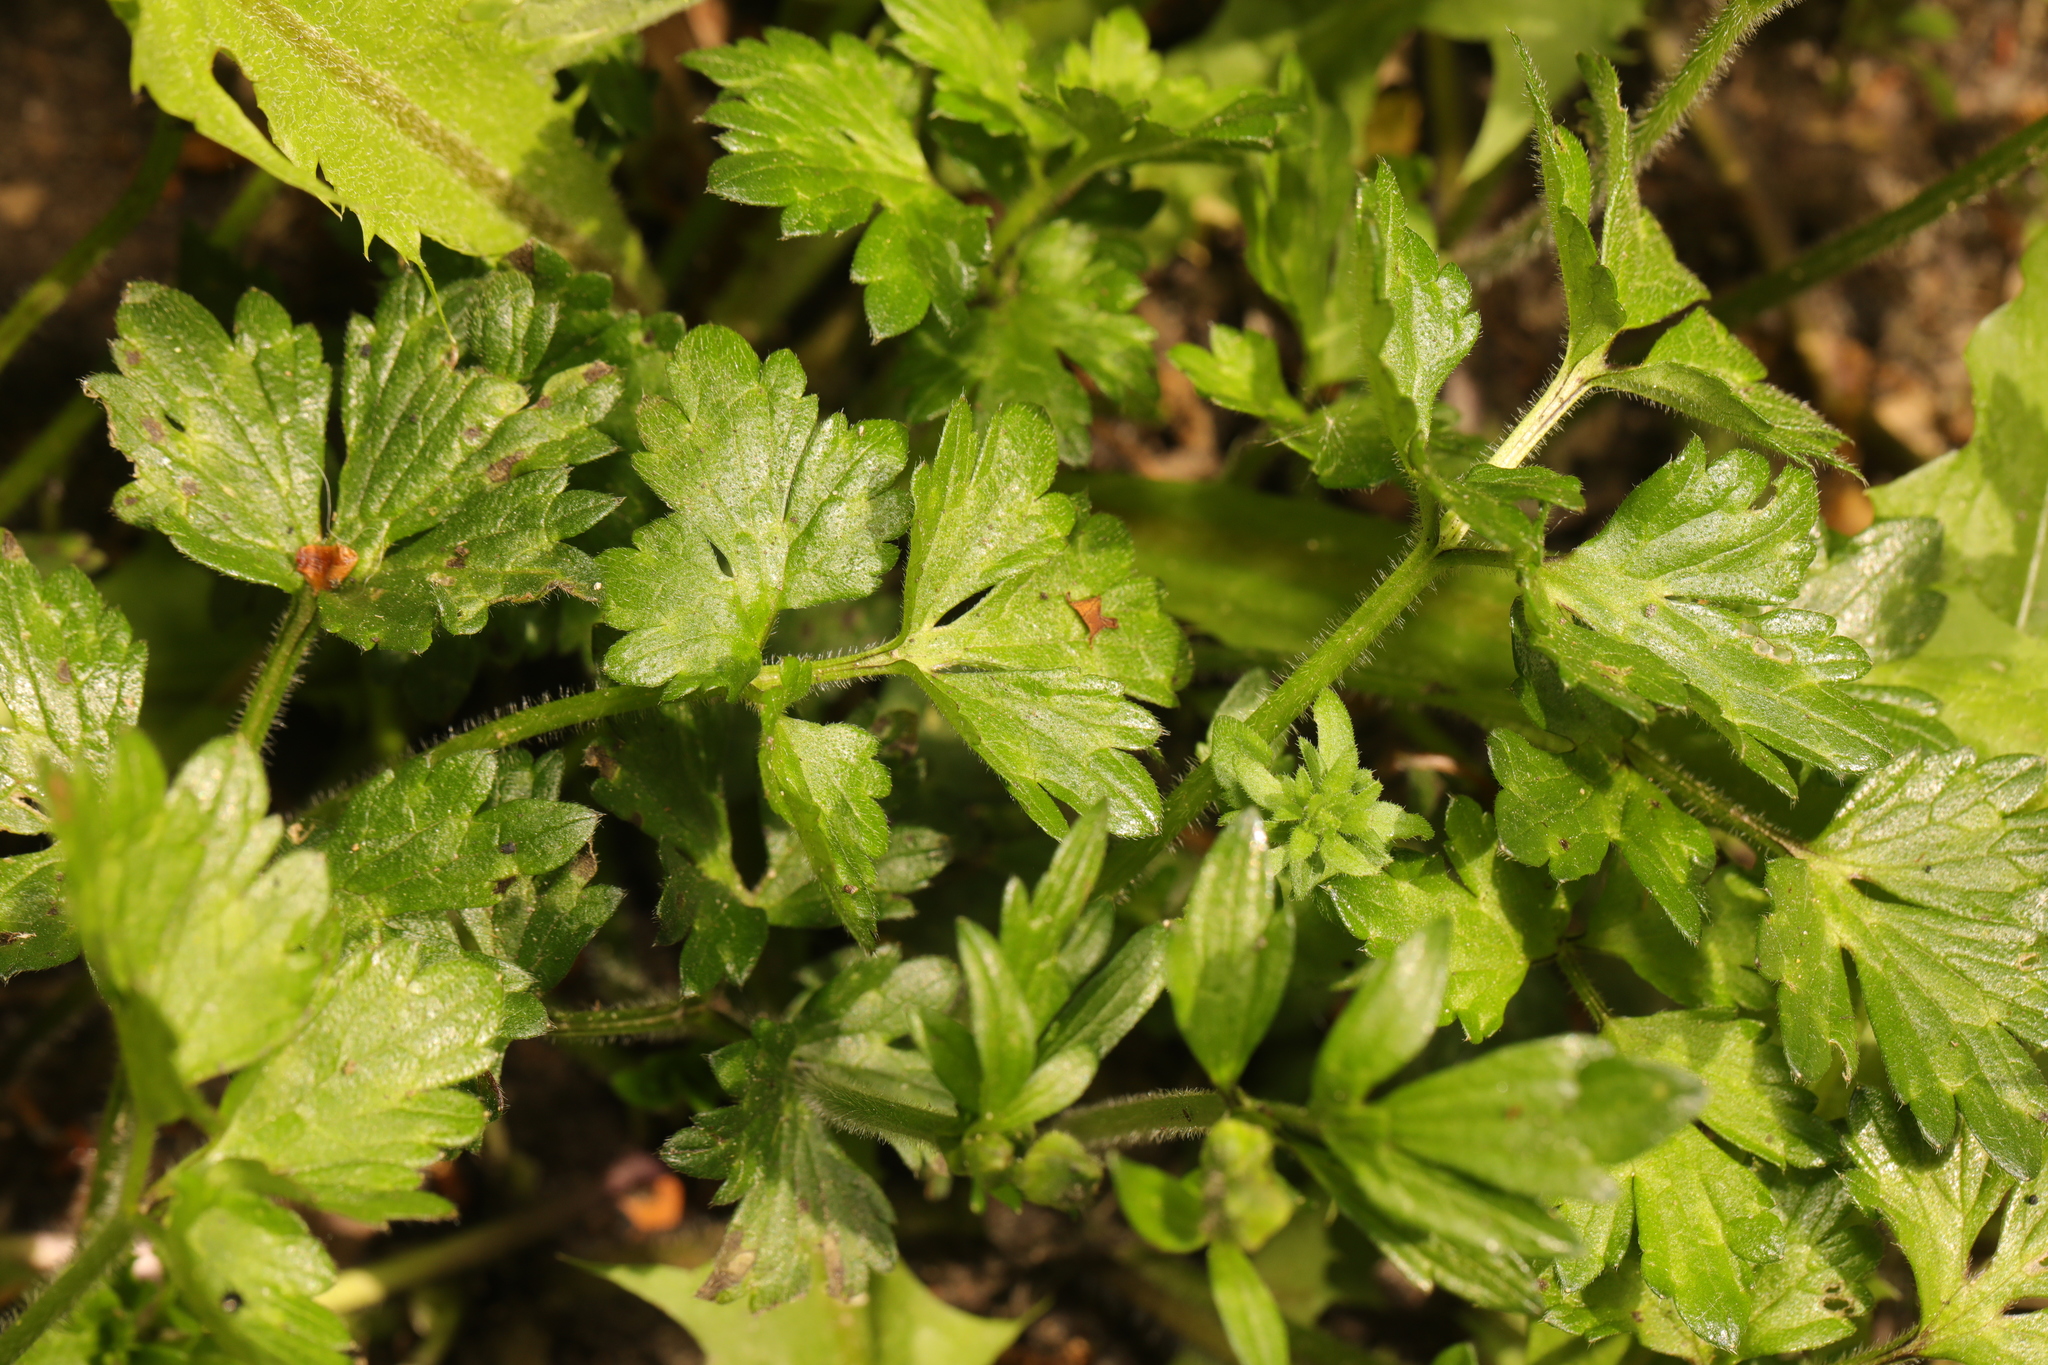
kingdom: Plantae
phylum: Tracheophyta
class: Magnoliopsida
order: Ranunculales
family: Ranunculaceae
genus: Ranunculus
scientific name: Ranunculus repens
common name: Creeping buttercup
